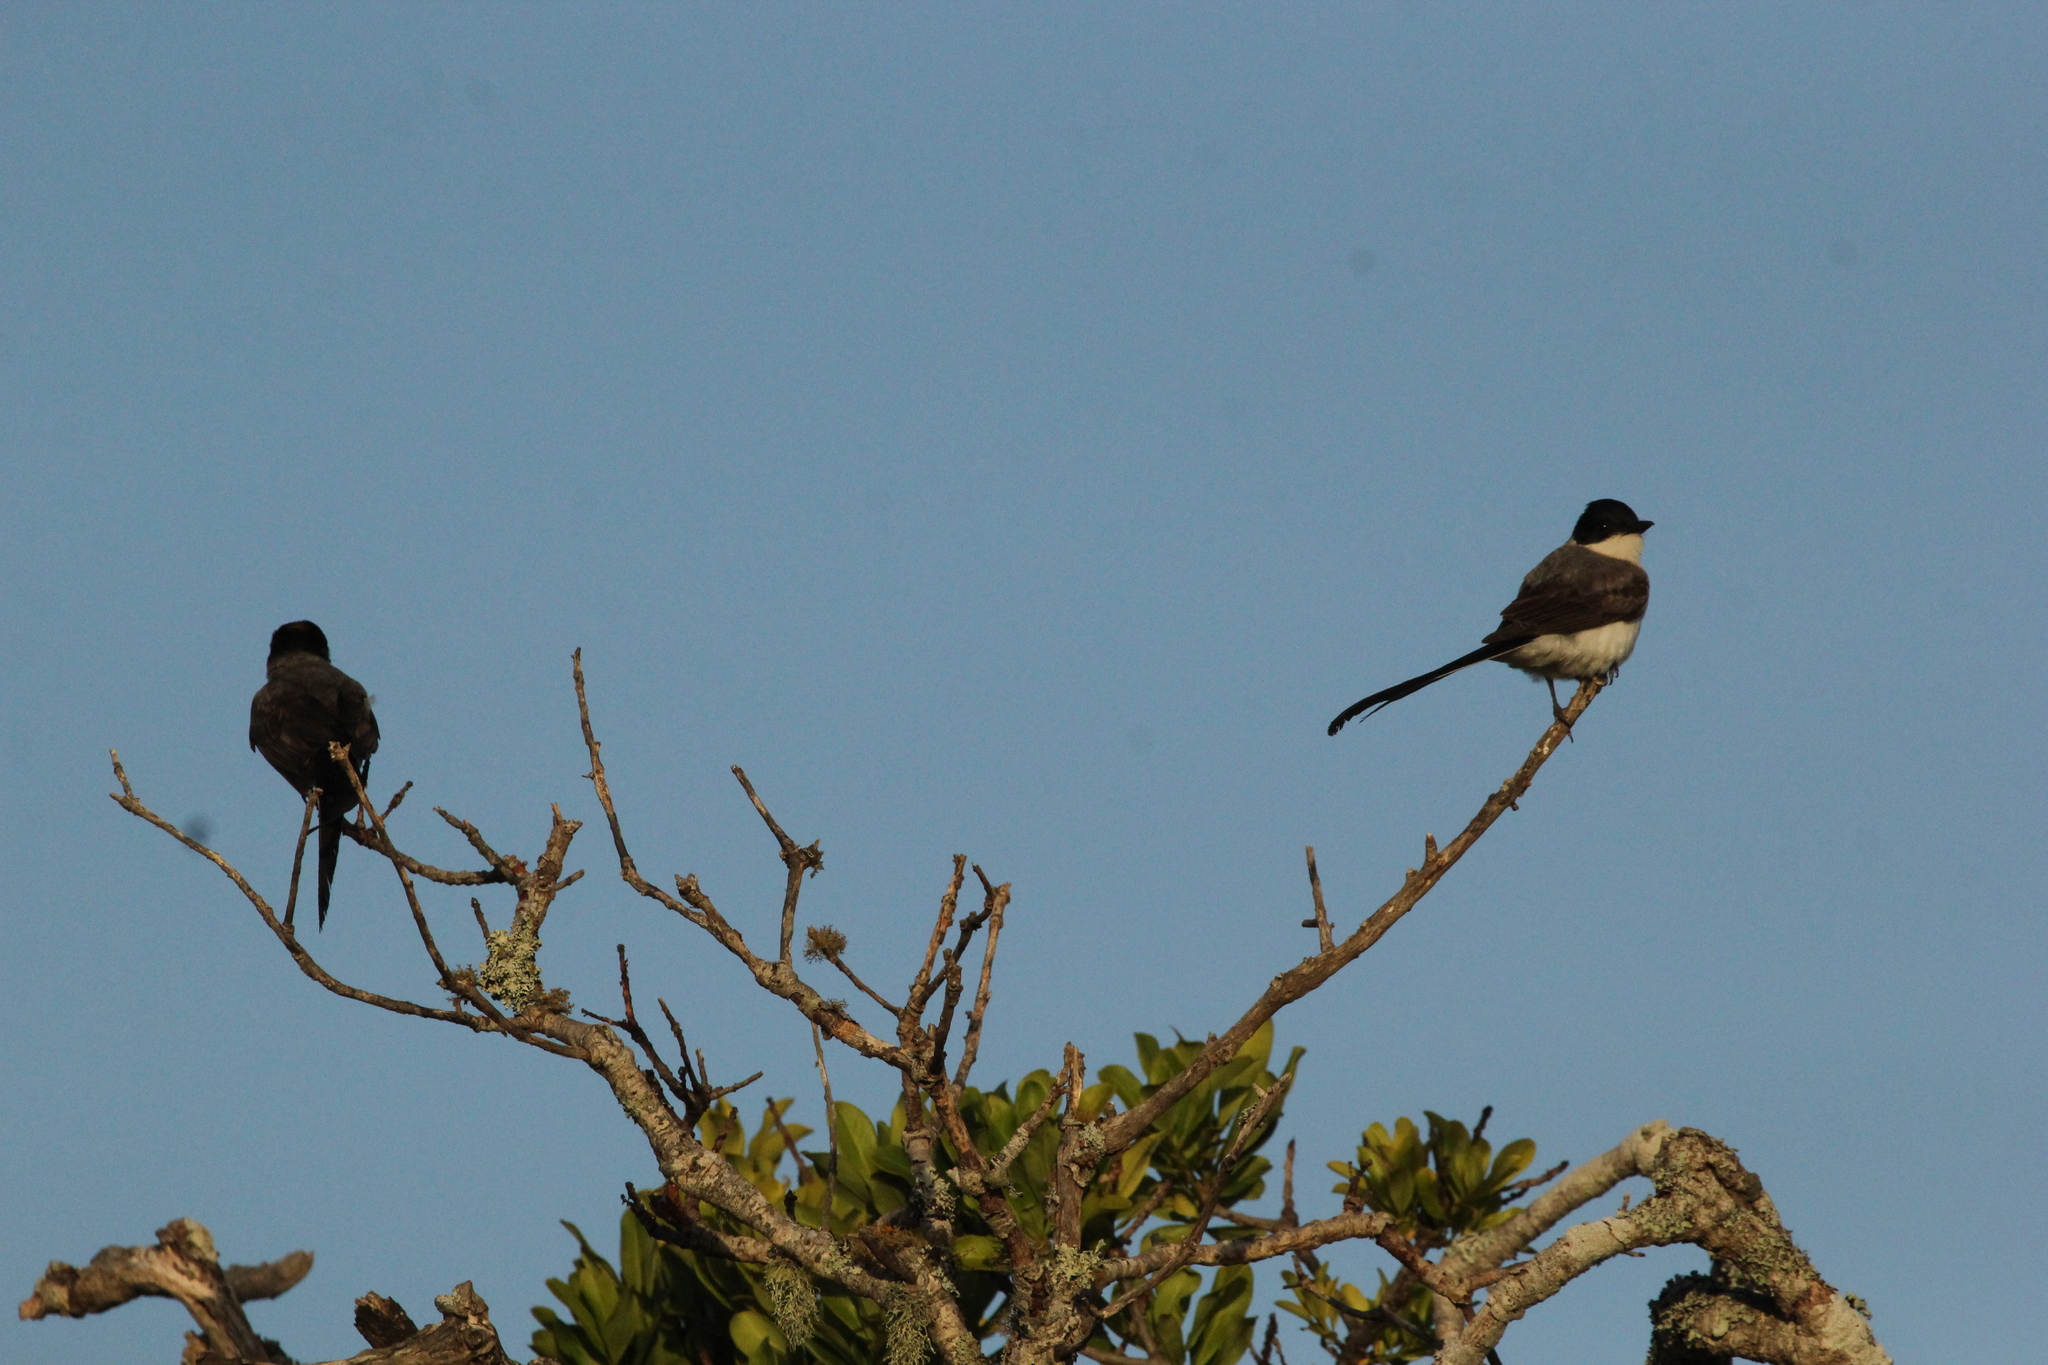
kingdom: Animalia
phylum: Chordata
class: Aves
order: Passeriformes
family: Tyrannidae
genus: Tyrannus
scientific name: Tyrannus savana
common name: Fork-tailed flycatcher
